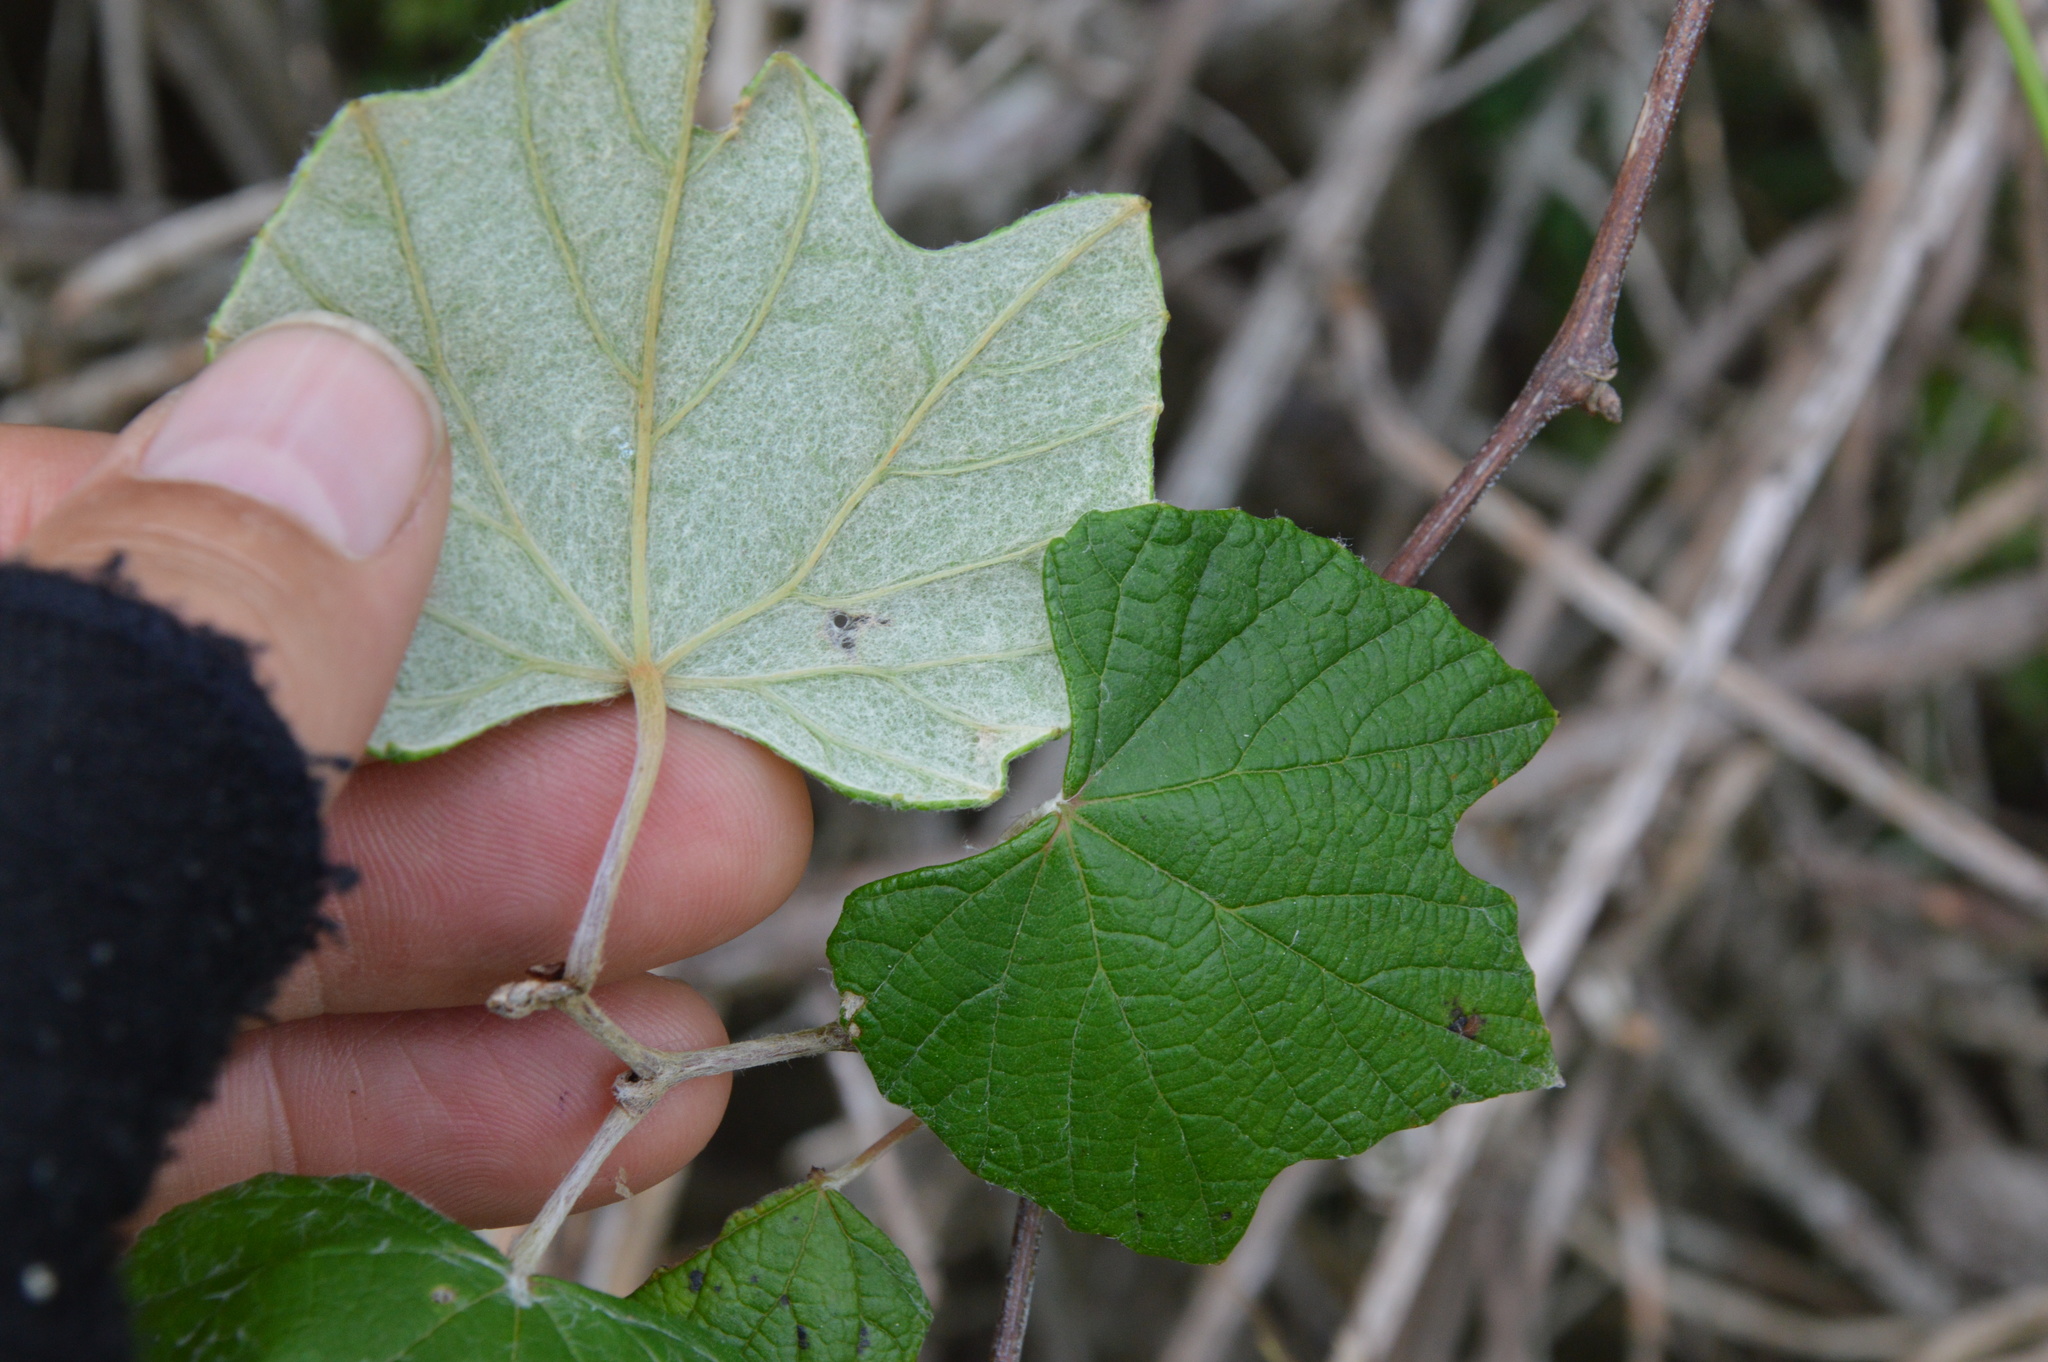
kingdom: Plantae
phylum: Tracheophyta
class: Magnoliopsida
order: Vitales
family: Vitaceae
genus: Vitis
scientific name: Vitis mustangensis
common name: Mustang grape
